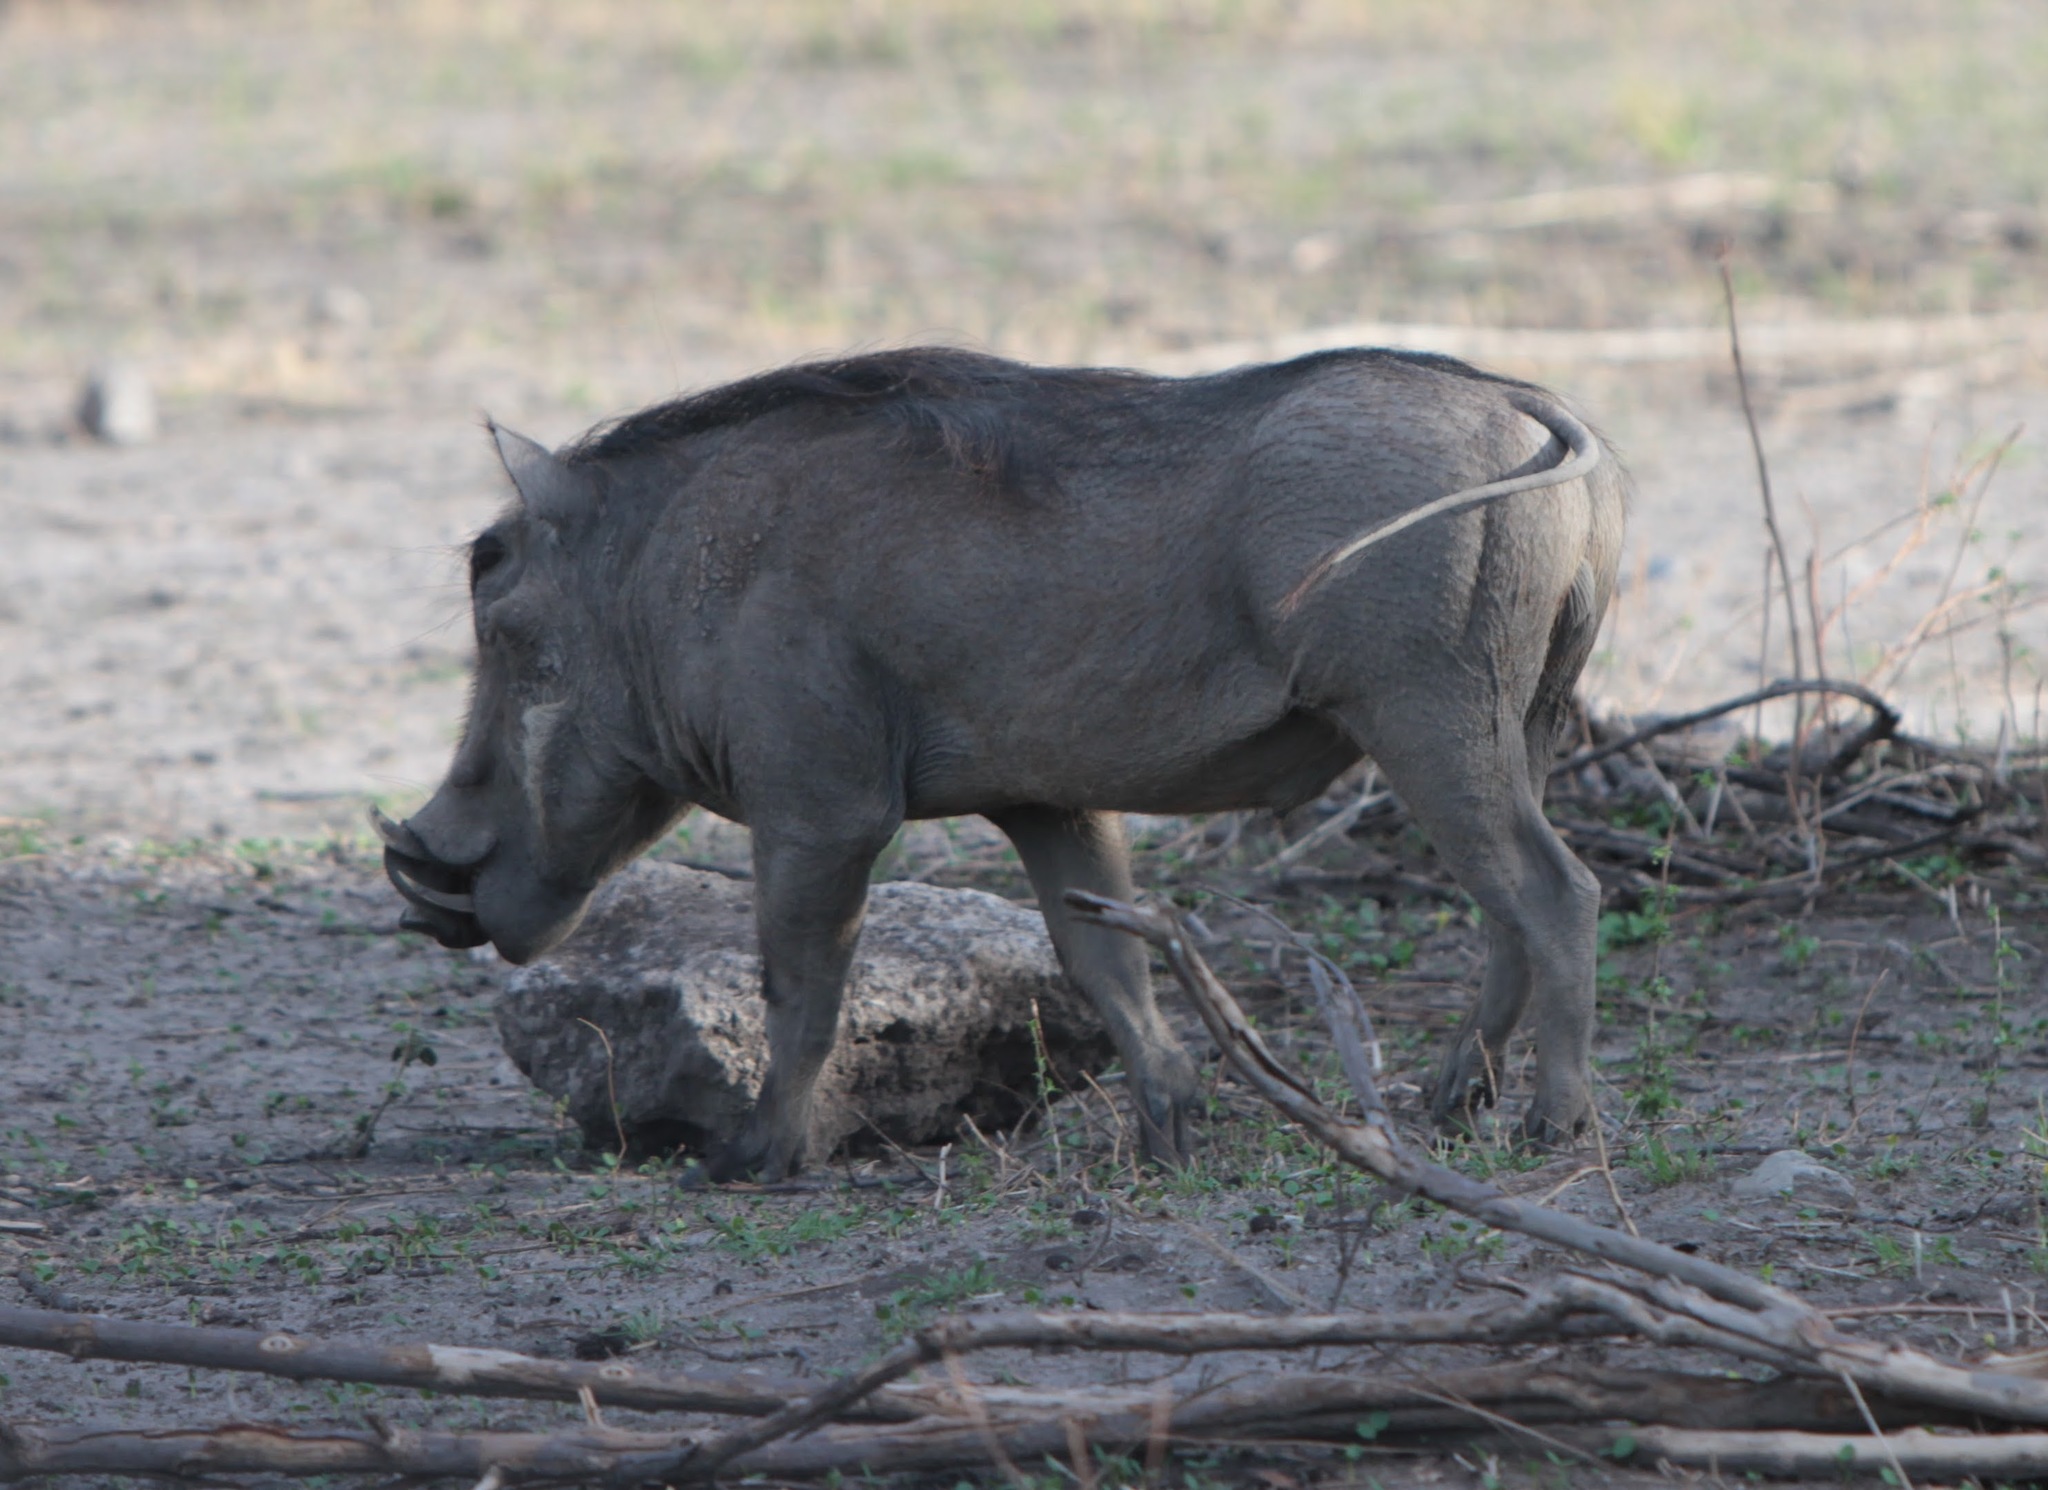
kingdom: Animalia
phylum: Chordata
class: Mammalia
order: Artiodactyla
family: Suidae
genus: Phacochoerus
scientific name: Phacochoerus africanus
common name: Common warthog
